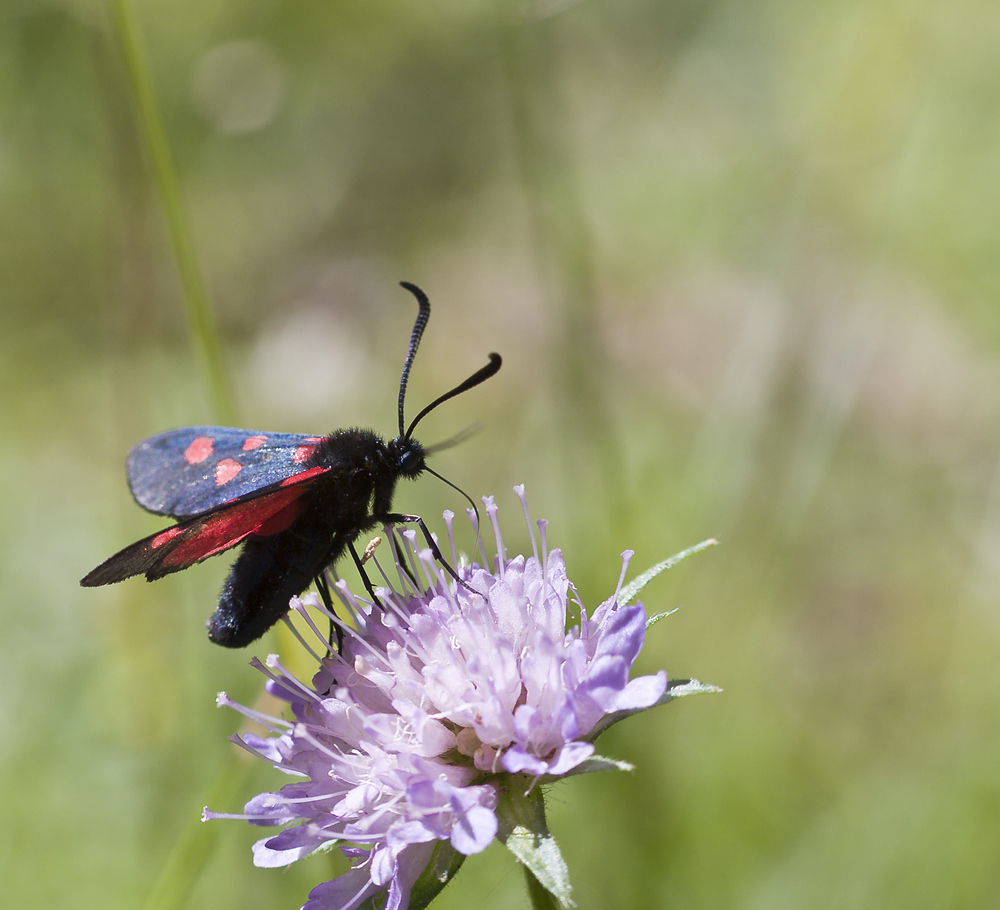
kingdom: Animalia
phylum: Arthropoda
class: Insecta
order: Lepidoptera
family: Zygaenidae
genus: Zygaena
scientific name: Zygaena trifolii
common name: Five-spot burnet
